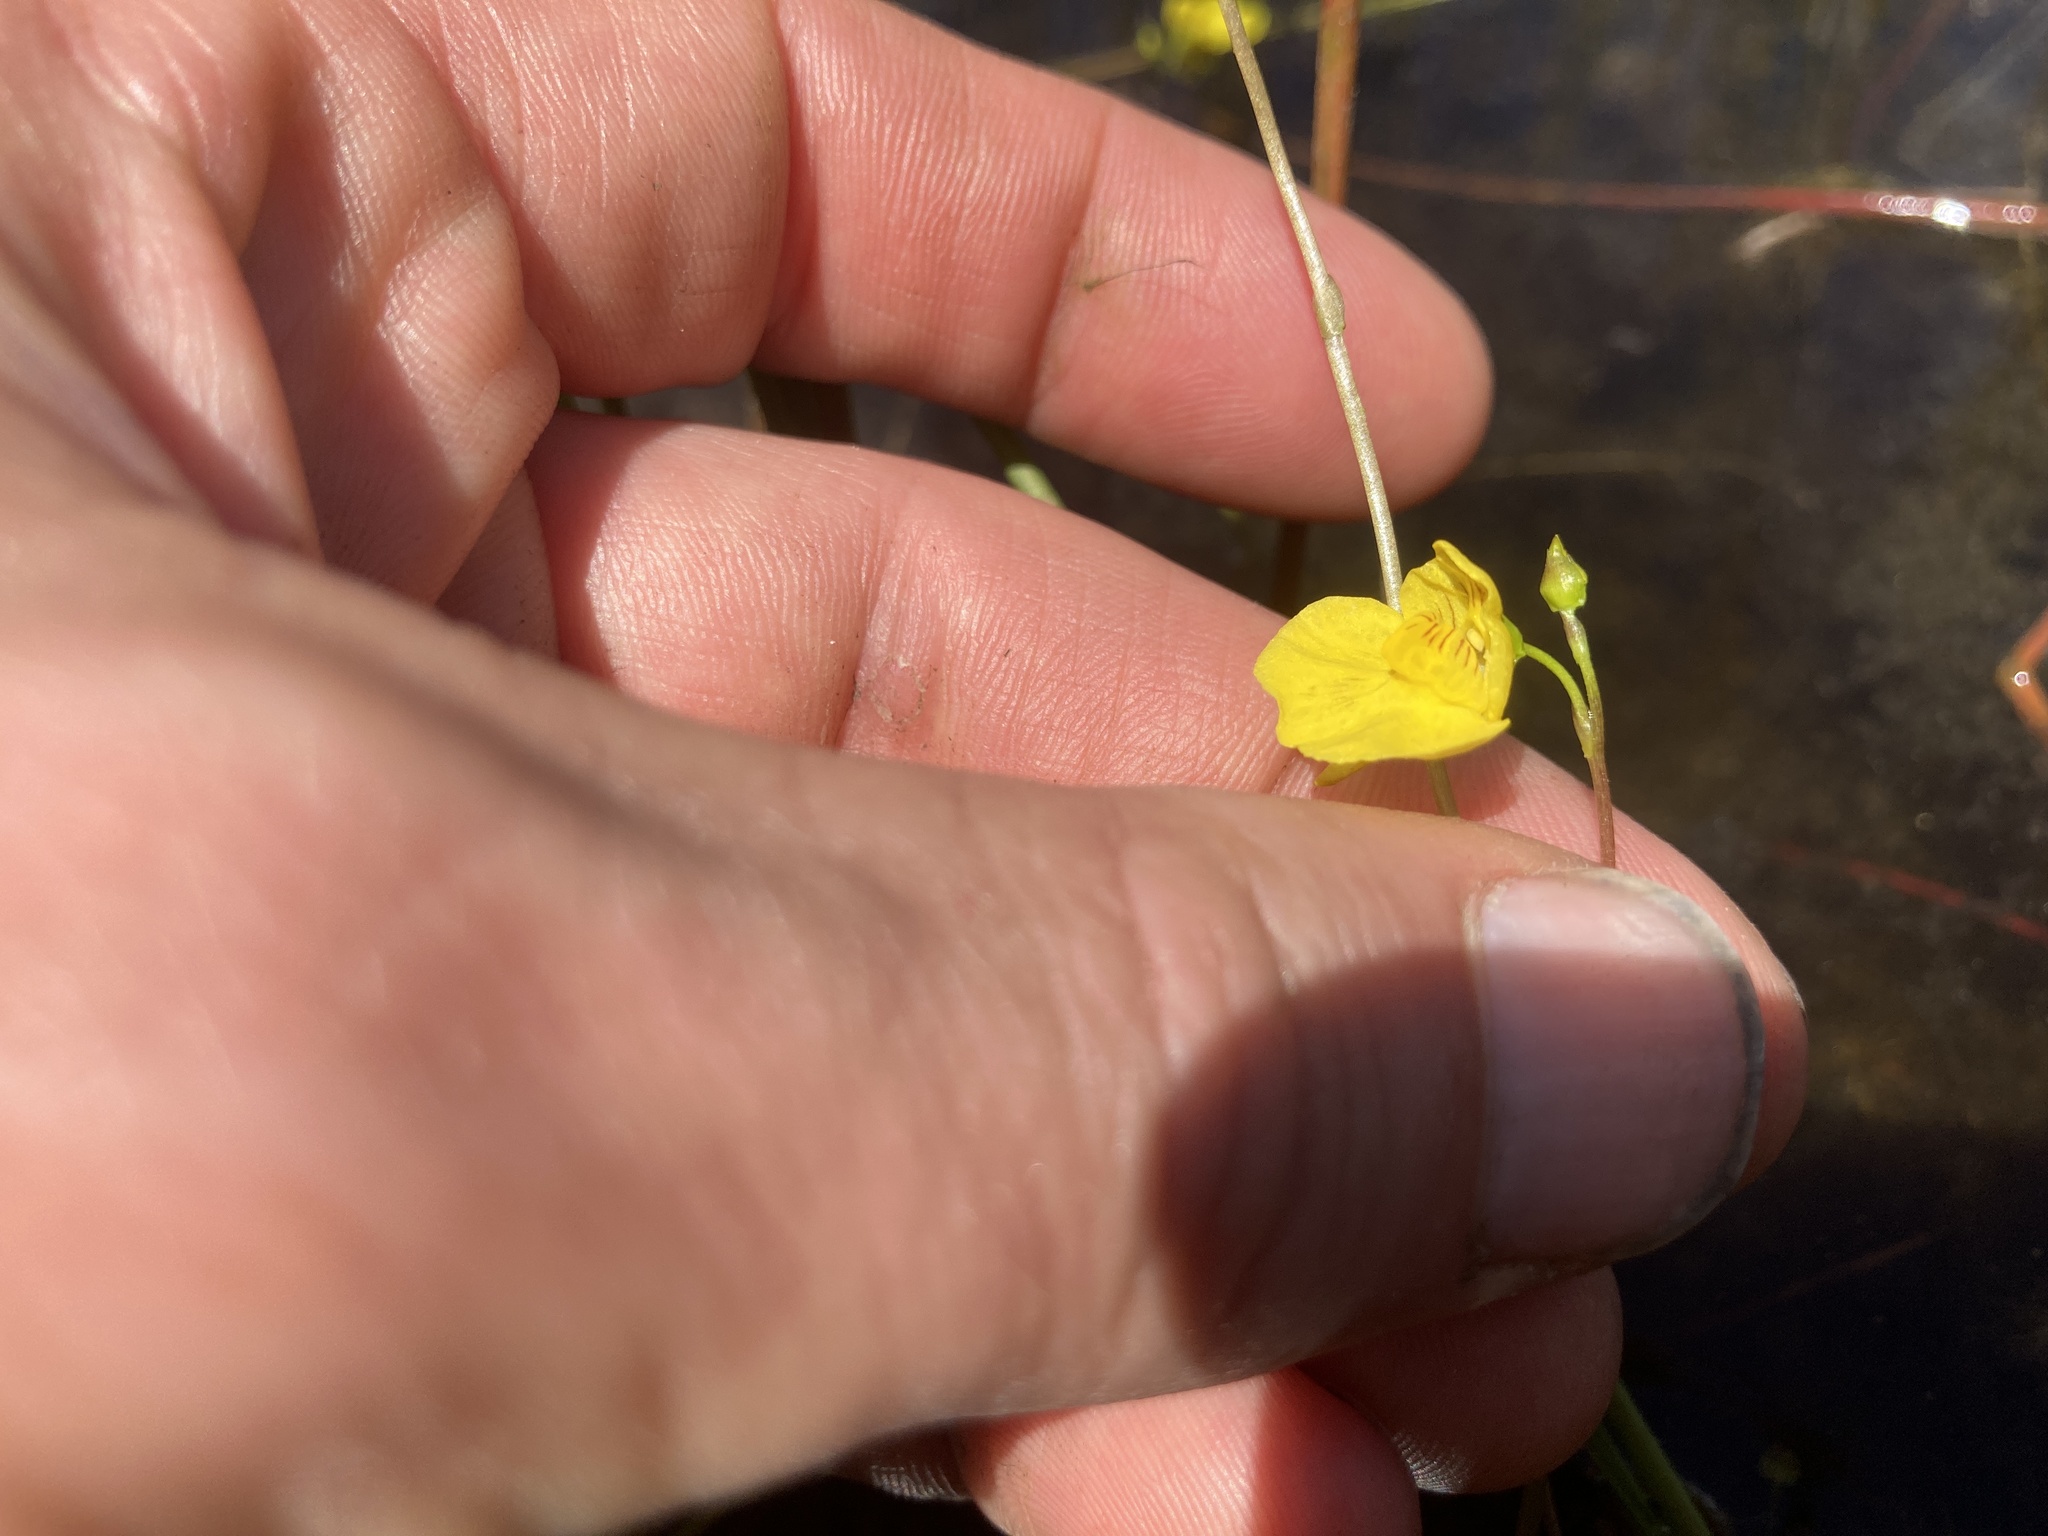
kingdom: Plantae
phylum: Tracheophyta
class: Magnoliopsida
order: Lamiales
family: Lentibulariaceae
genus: Utricularia
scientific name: Utricularia intermedia
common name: Intermediate bladderwort
